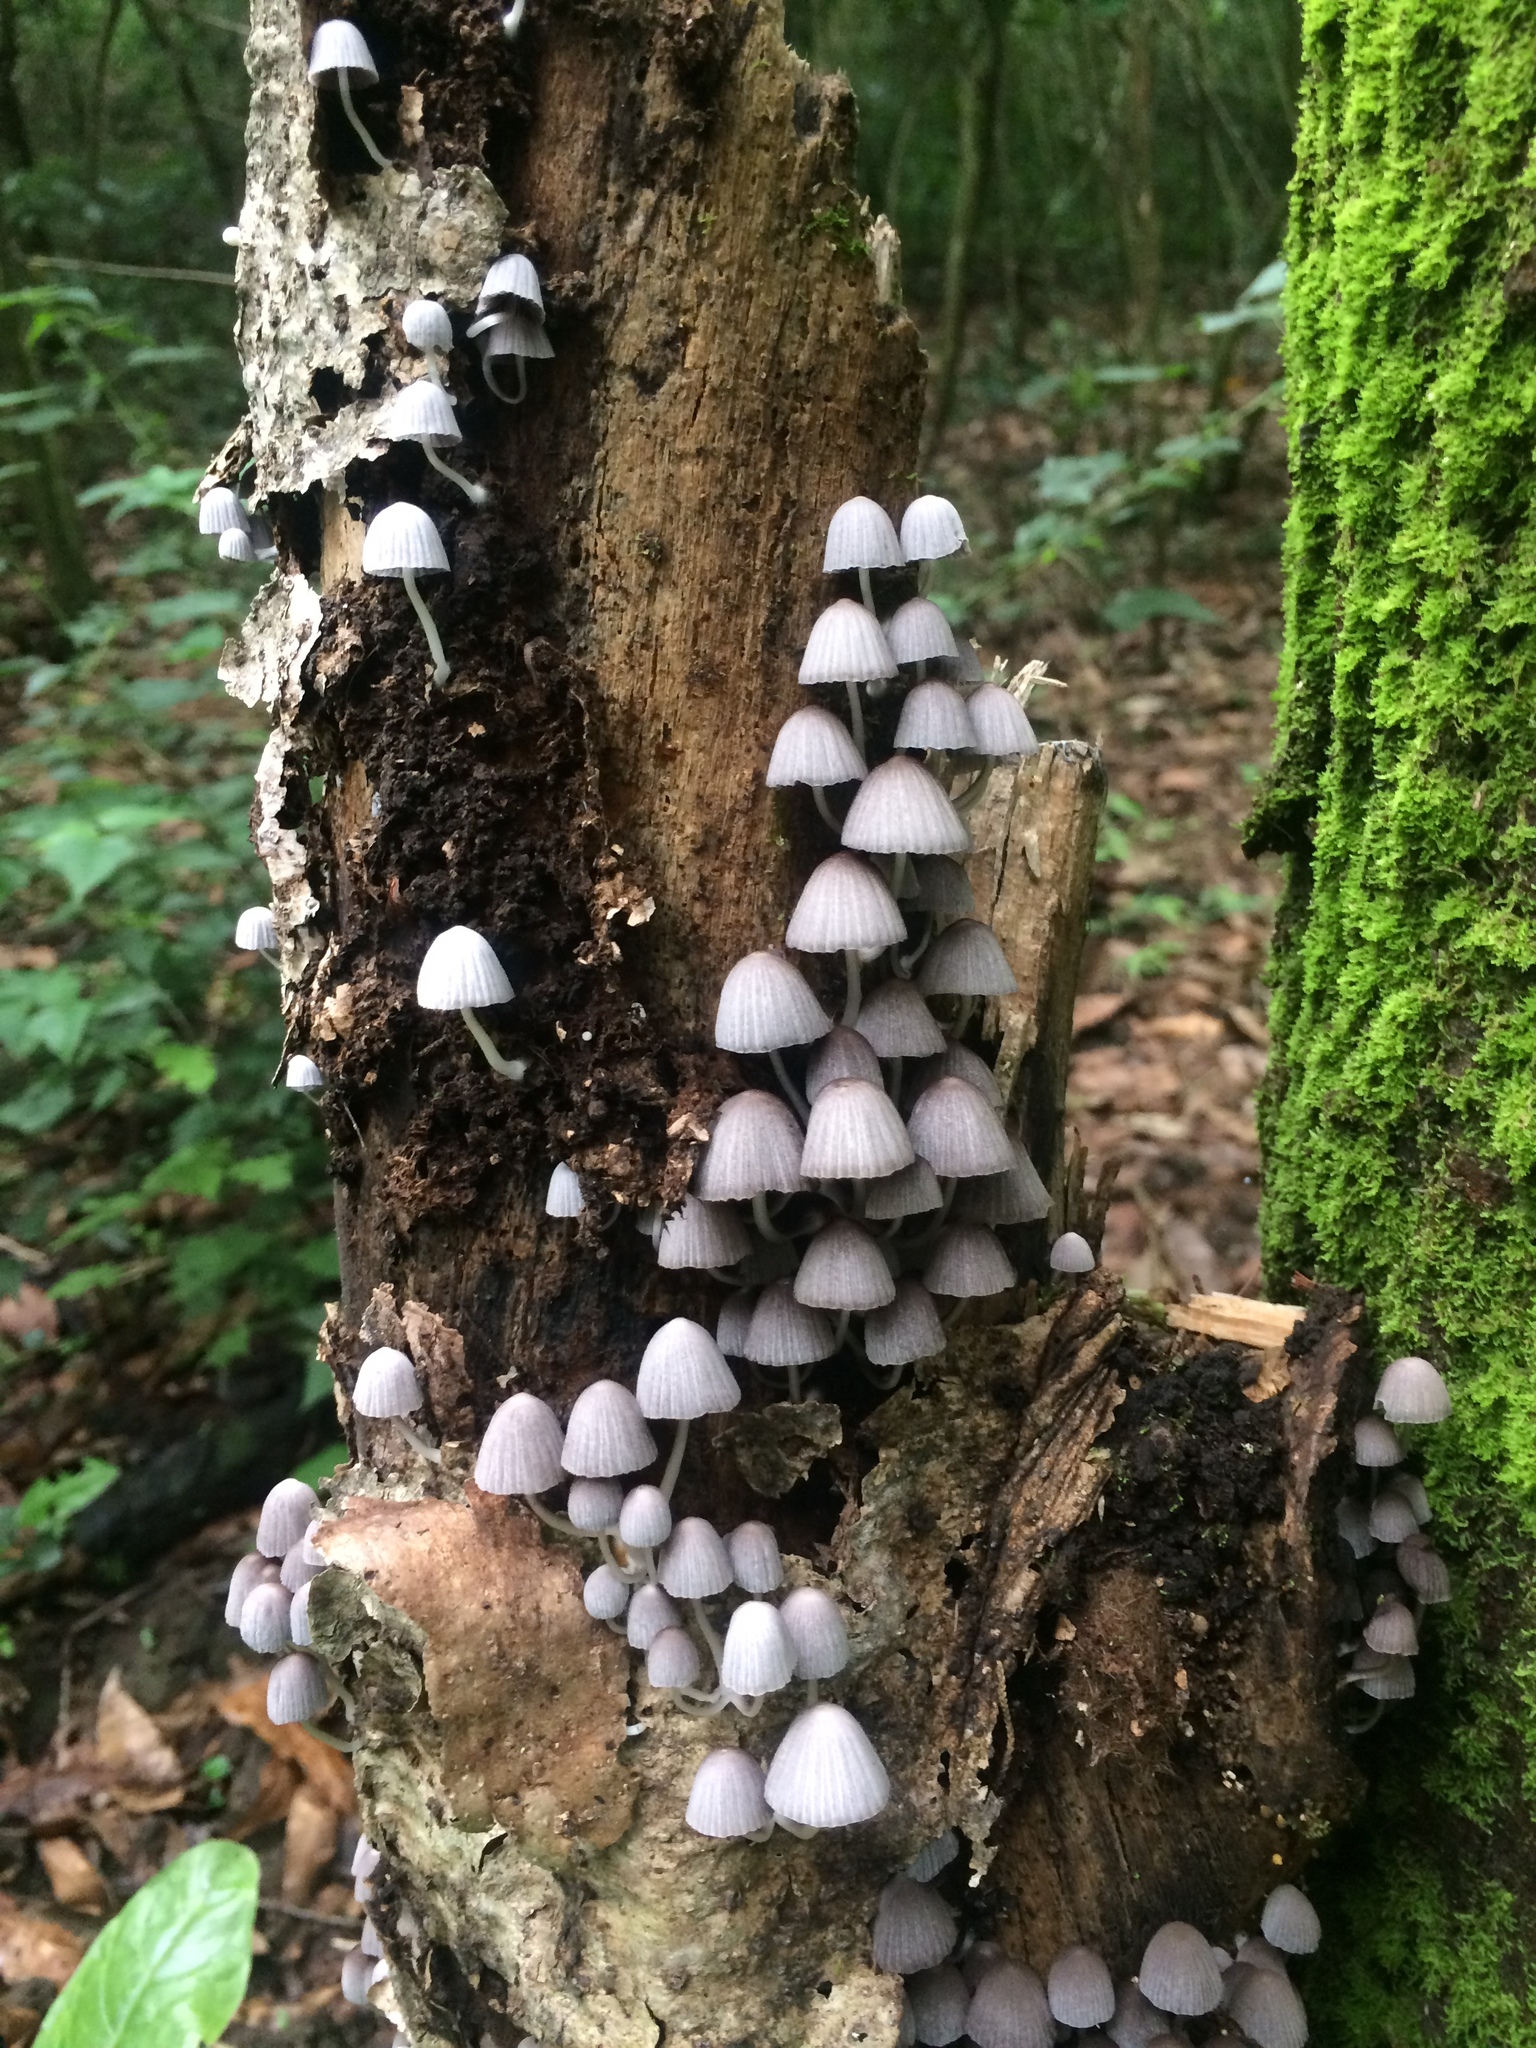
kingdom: Fungi
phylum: Basidiomycota
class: Agaricomycetes
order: Agaricales
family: Psathyrellaceae
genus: Coprinellus
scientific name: Coprinellus disseminatus
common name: Fairies' bonnets
